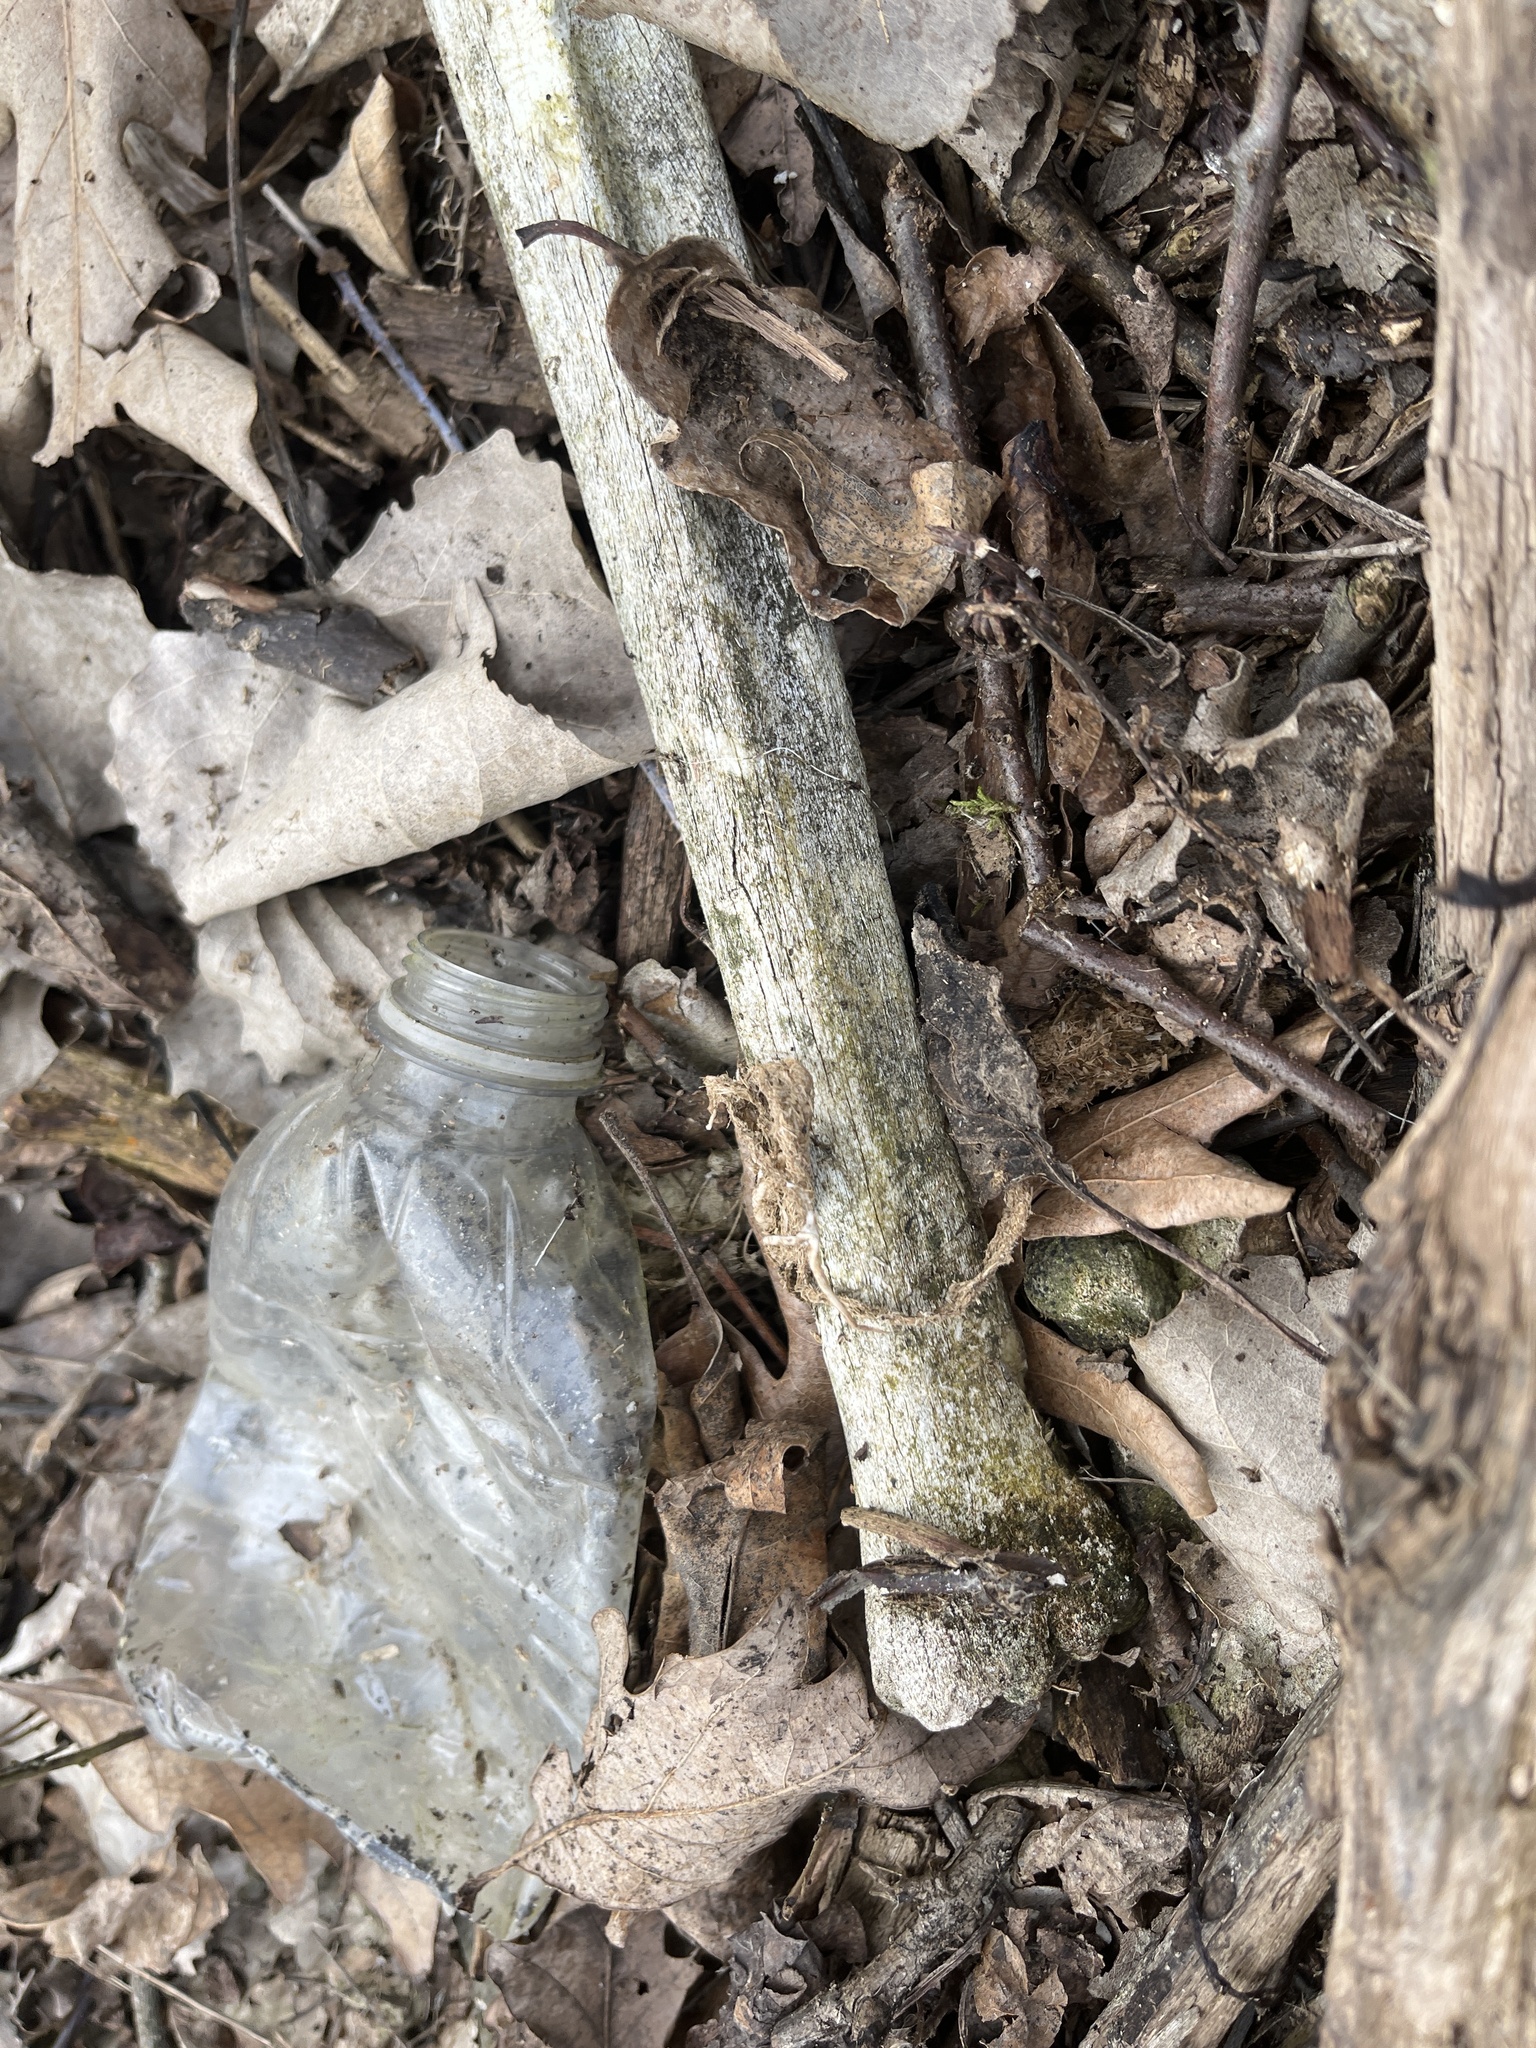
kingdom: Animalia
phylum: Chordata
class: Mammalia
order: Artiodactyla
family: Cervidae
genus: Odocoileus
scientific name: Odocoileus virginianus
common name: White-tailed deer
